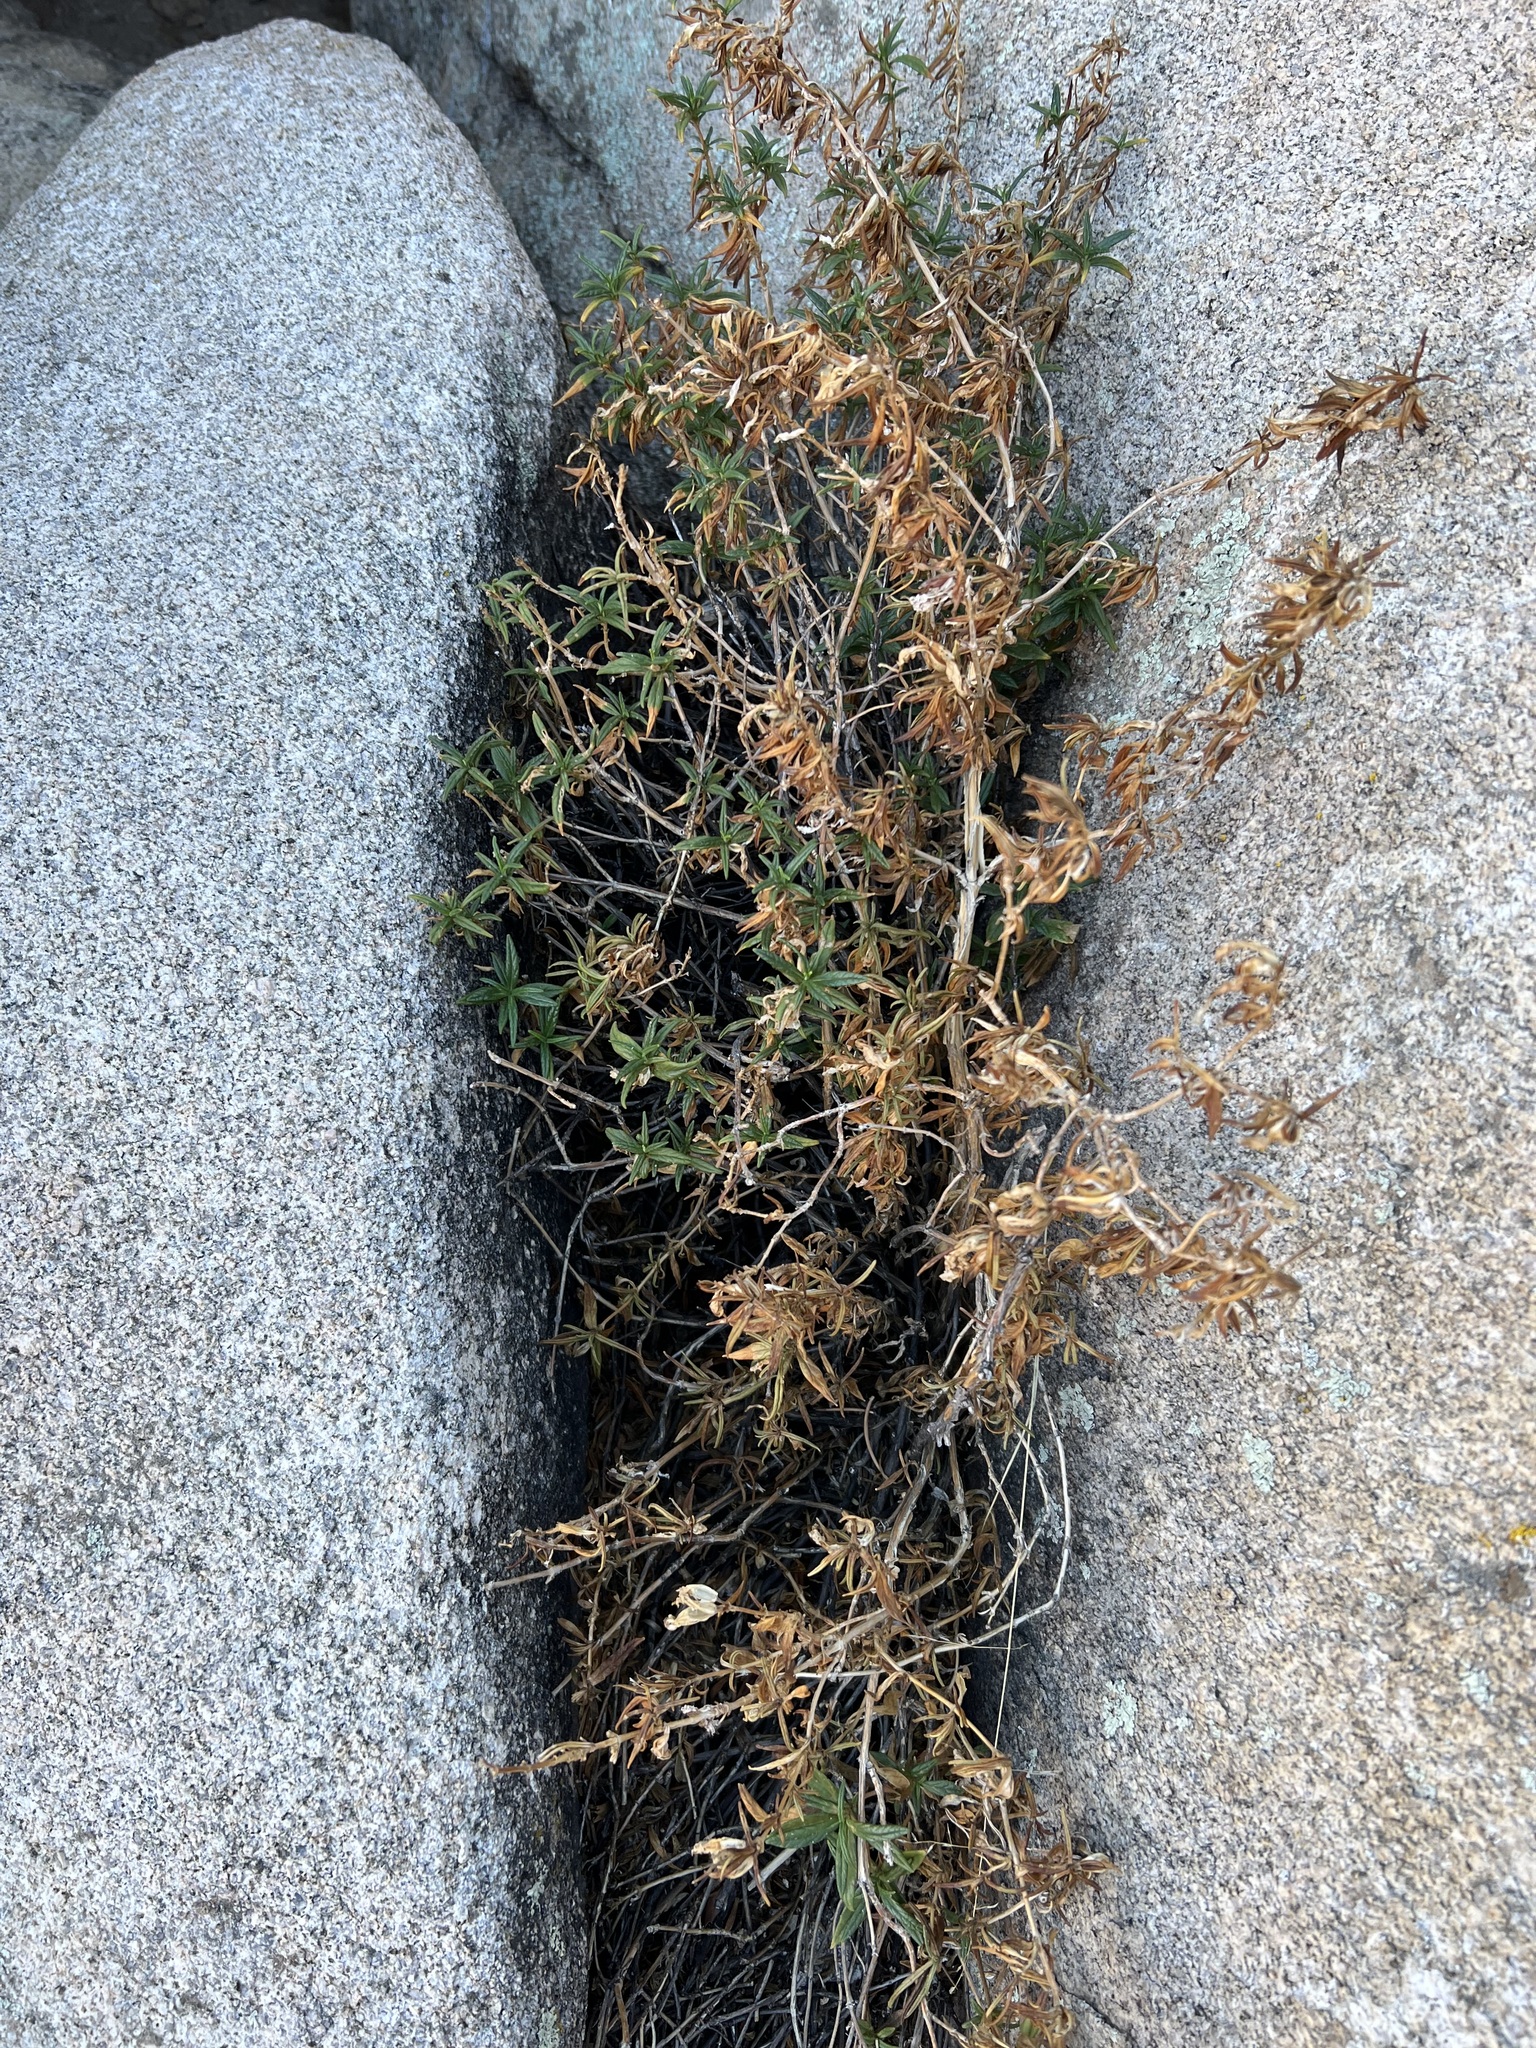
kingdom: Plantae
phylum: Tracheophyta
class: Magnoliopsida
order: Lamiales
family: Phrymaceae
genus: Diplacus
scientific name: Diplacus calycinus
